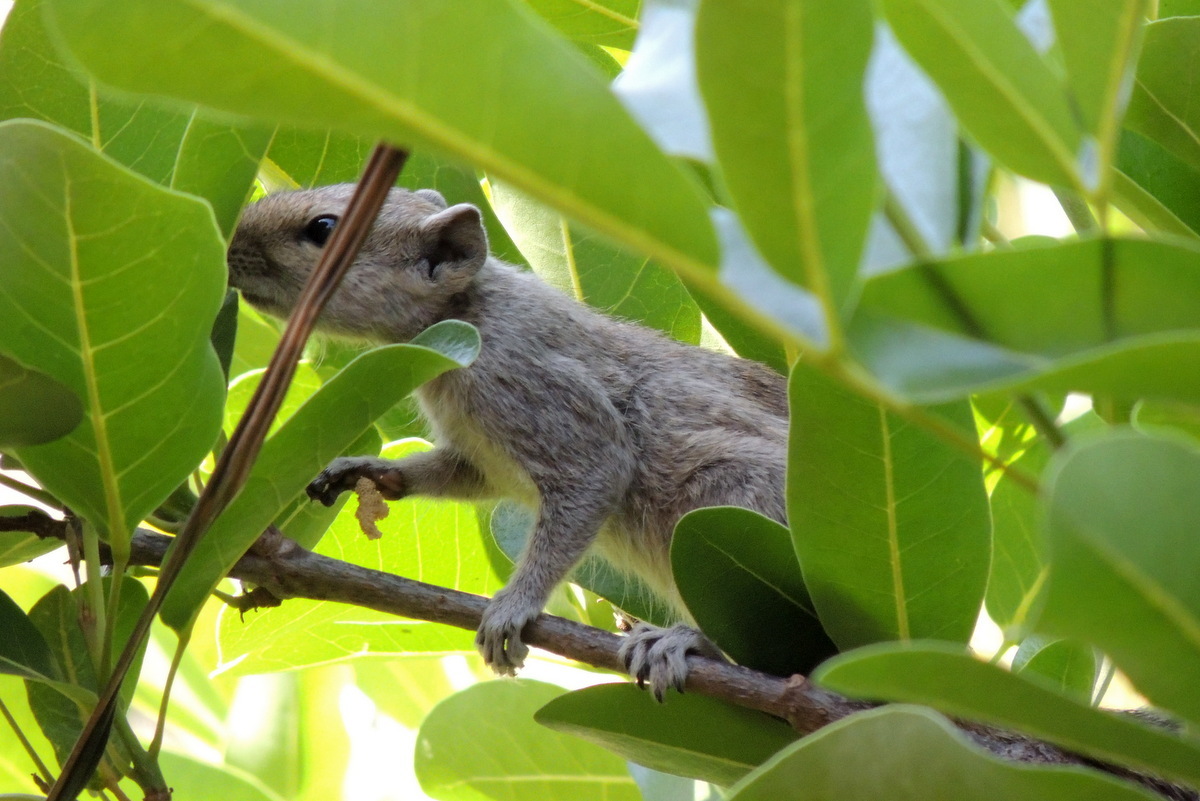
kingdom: Animalia
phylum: Chordata
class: Mammalia
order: Rodentia
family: Sciuridae
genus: Funambulus
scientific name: Funambulus palmarum
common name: Indian palm squirrel
